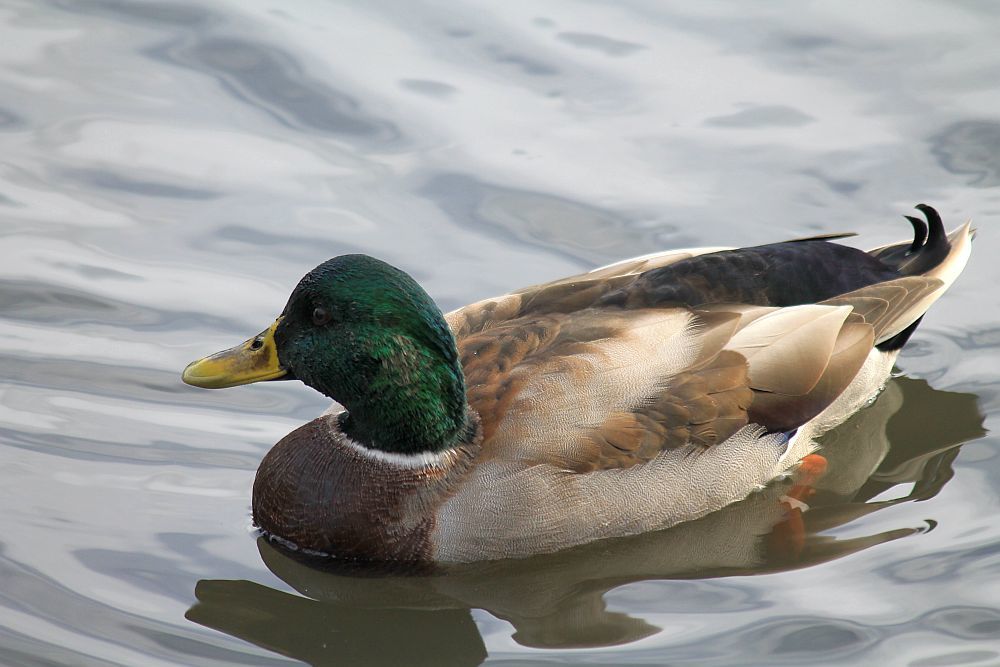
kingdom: Animalia
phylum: Chordata
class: Aves
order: Anseriformes
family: Anatidae
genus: Anas
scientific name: Anas platyrhynchos
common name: Mallard
